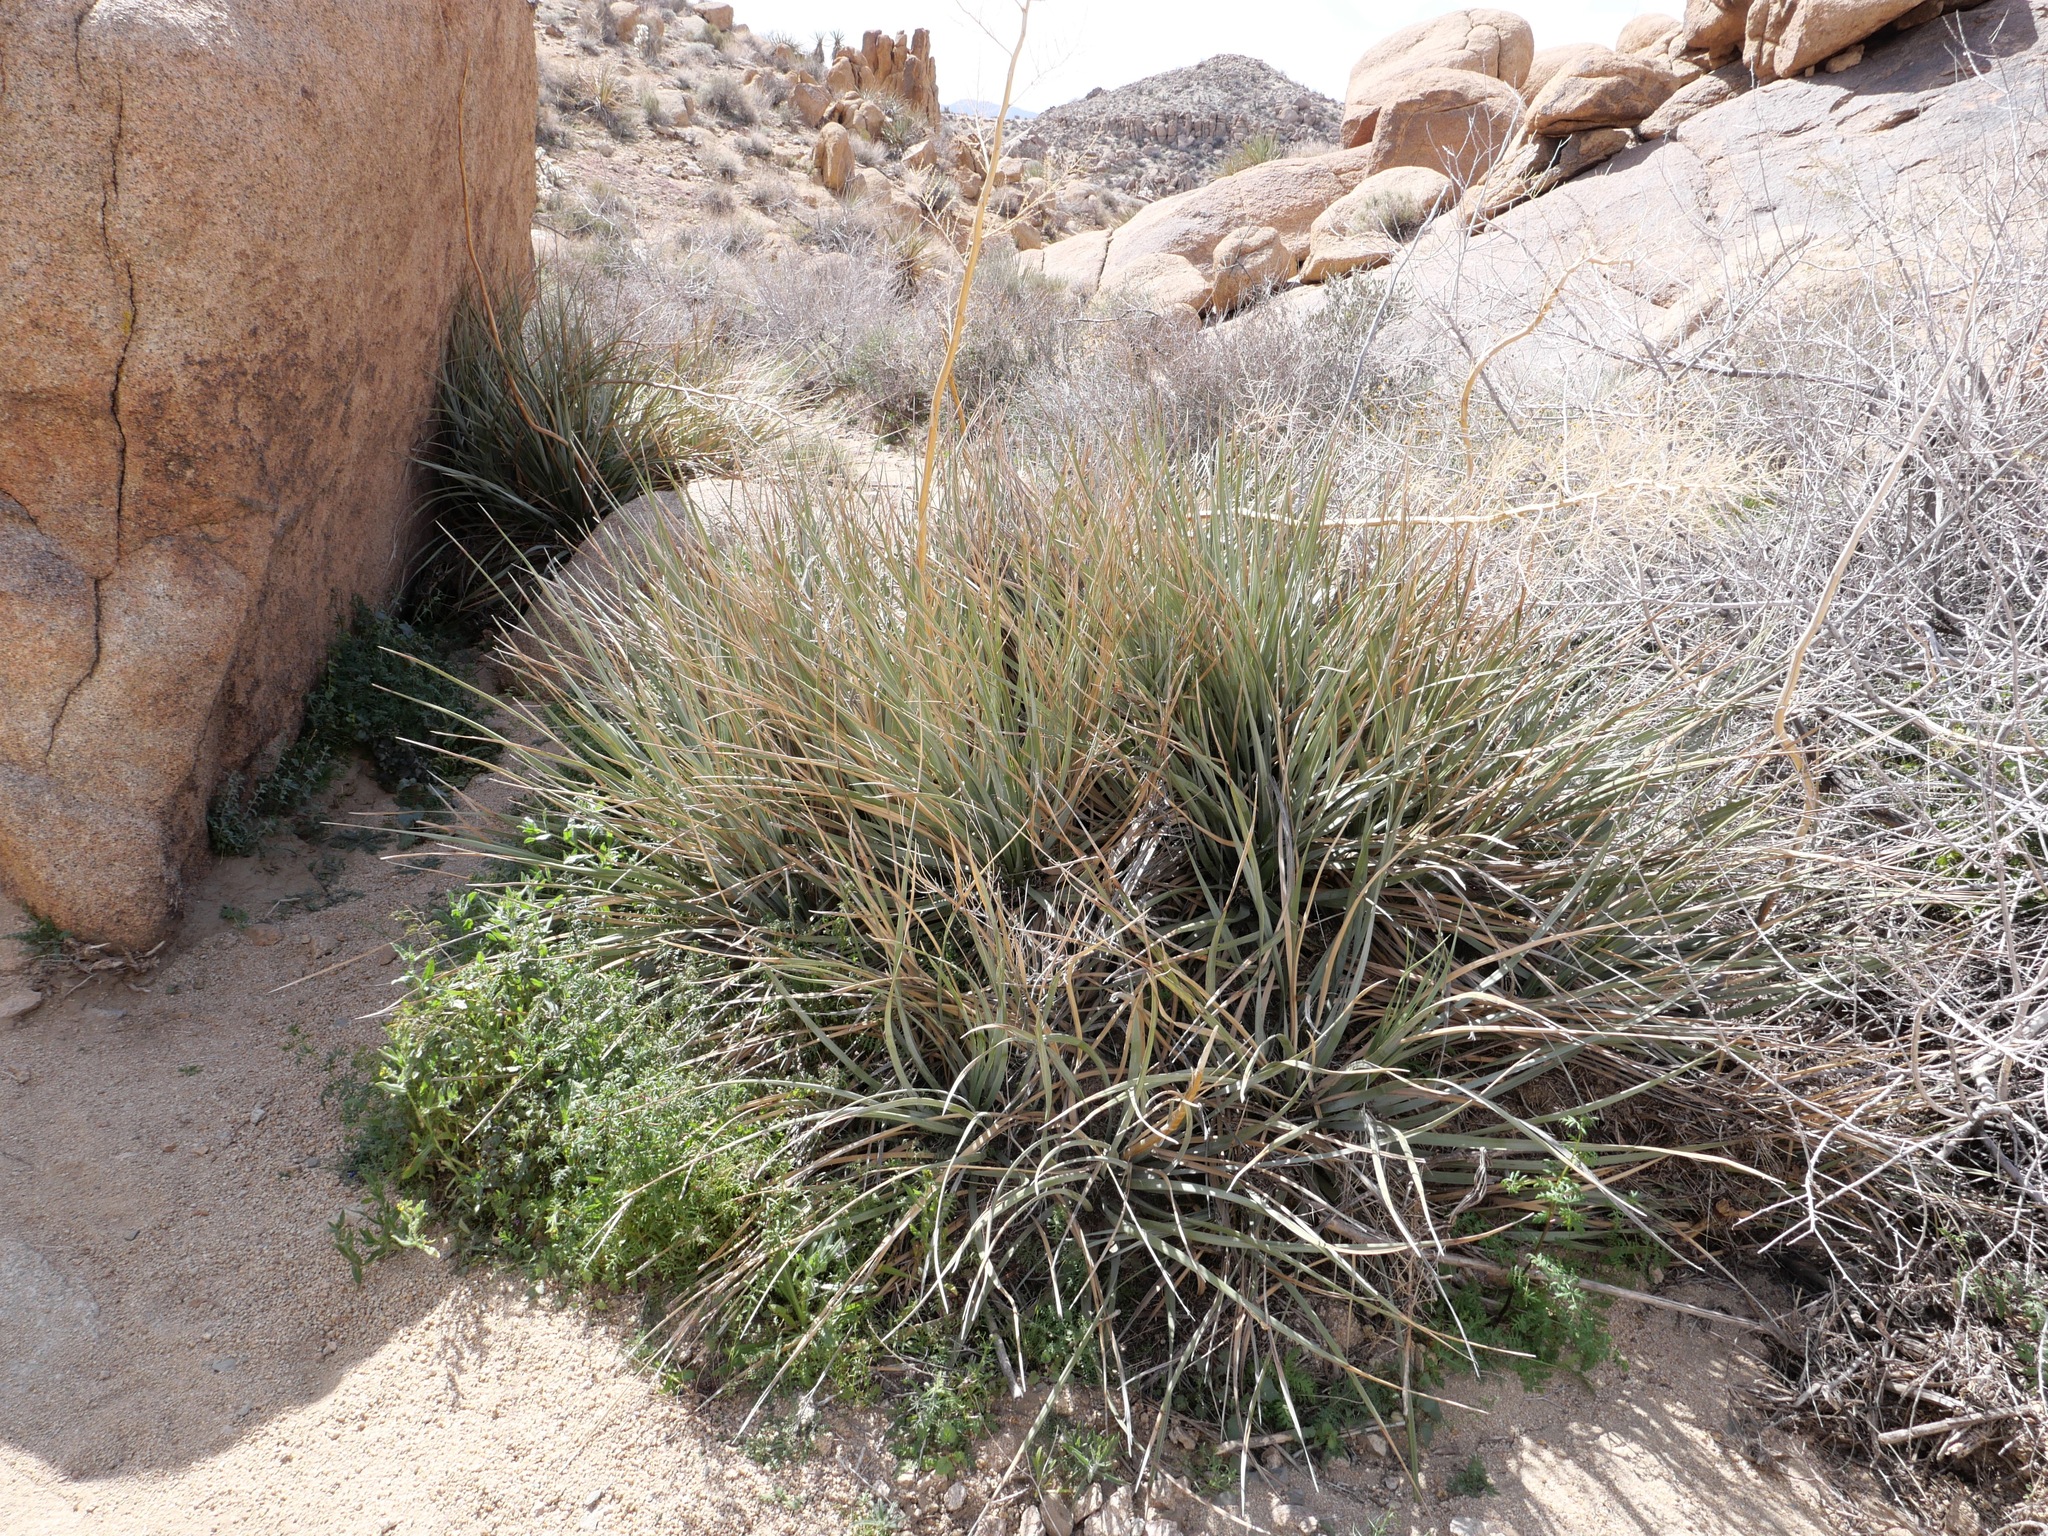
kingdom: Plantae
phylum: Tracheophyta
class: Liliopsida
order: Asparagales
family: Asparagaceae
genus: Nolina
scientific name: Nolina bigelovii
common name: Bigelow bear-grass
